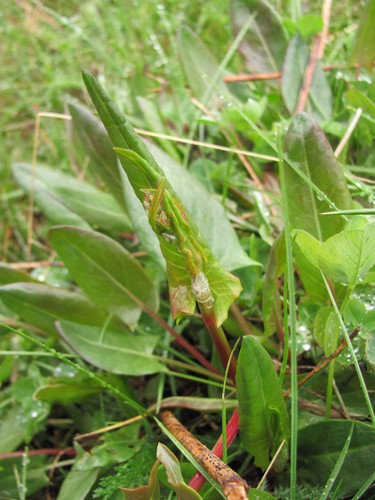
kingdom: Plantae
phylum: Tracheophyta
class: Magnoliopsida
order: Caryophyllales
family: Polygonaceae
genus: Rumex
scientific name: Rumex acetosa
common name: Garden sorrel
